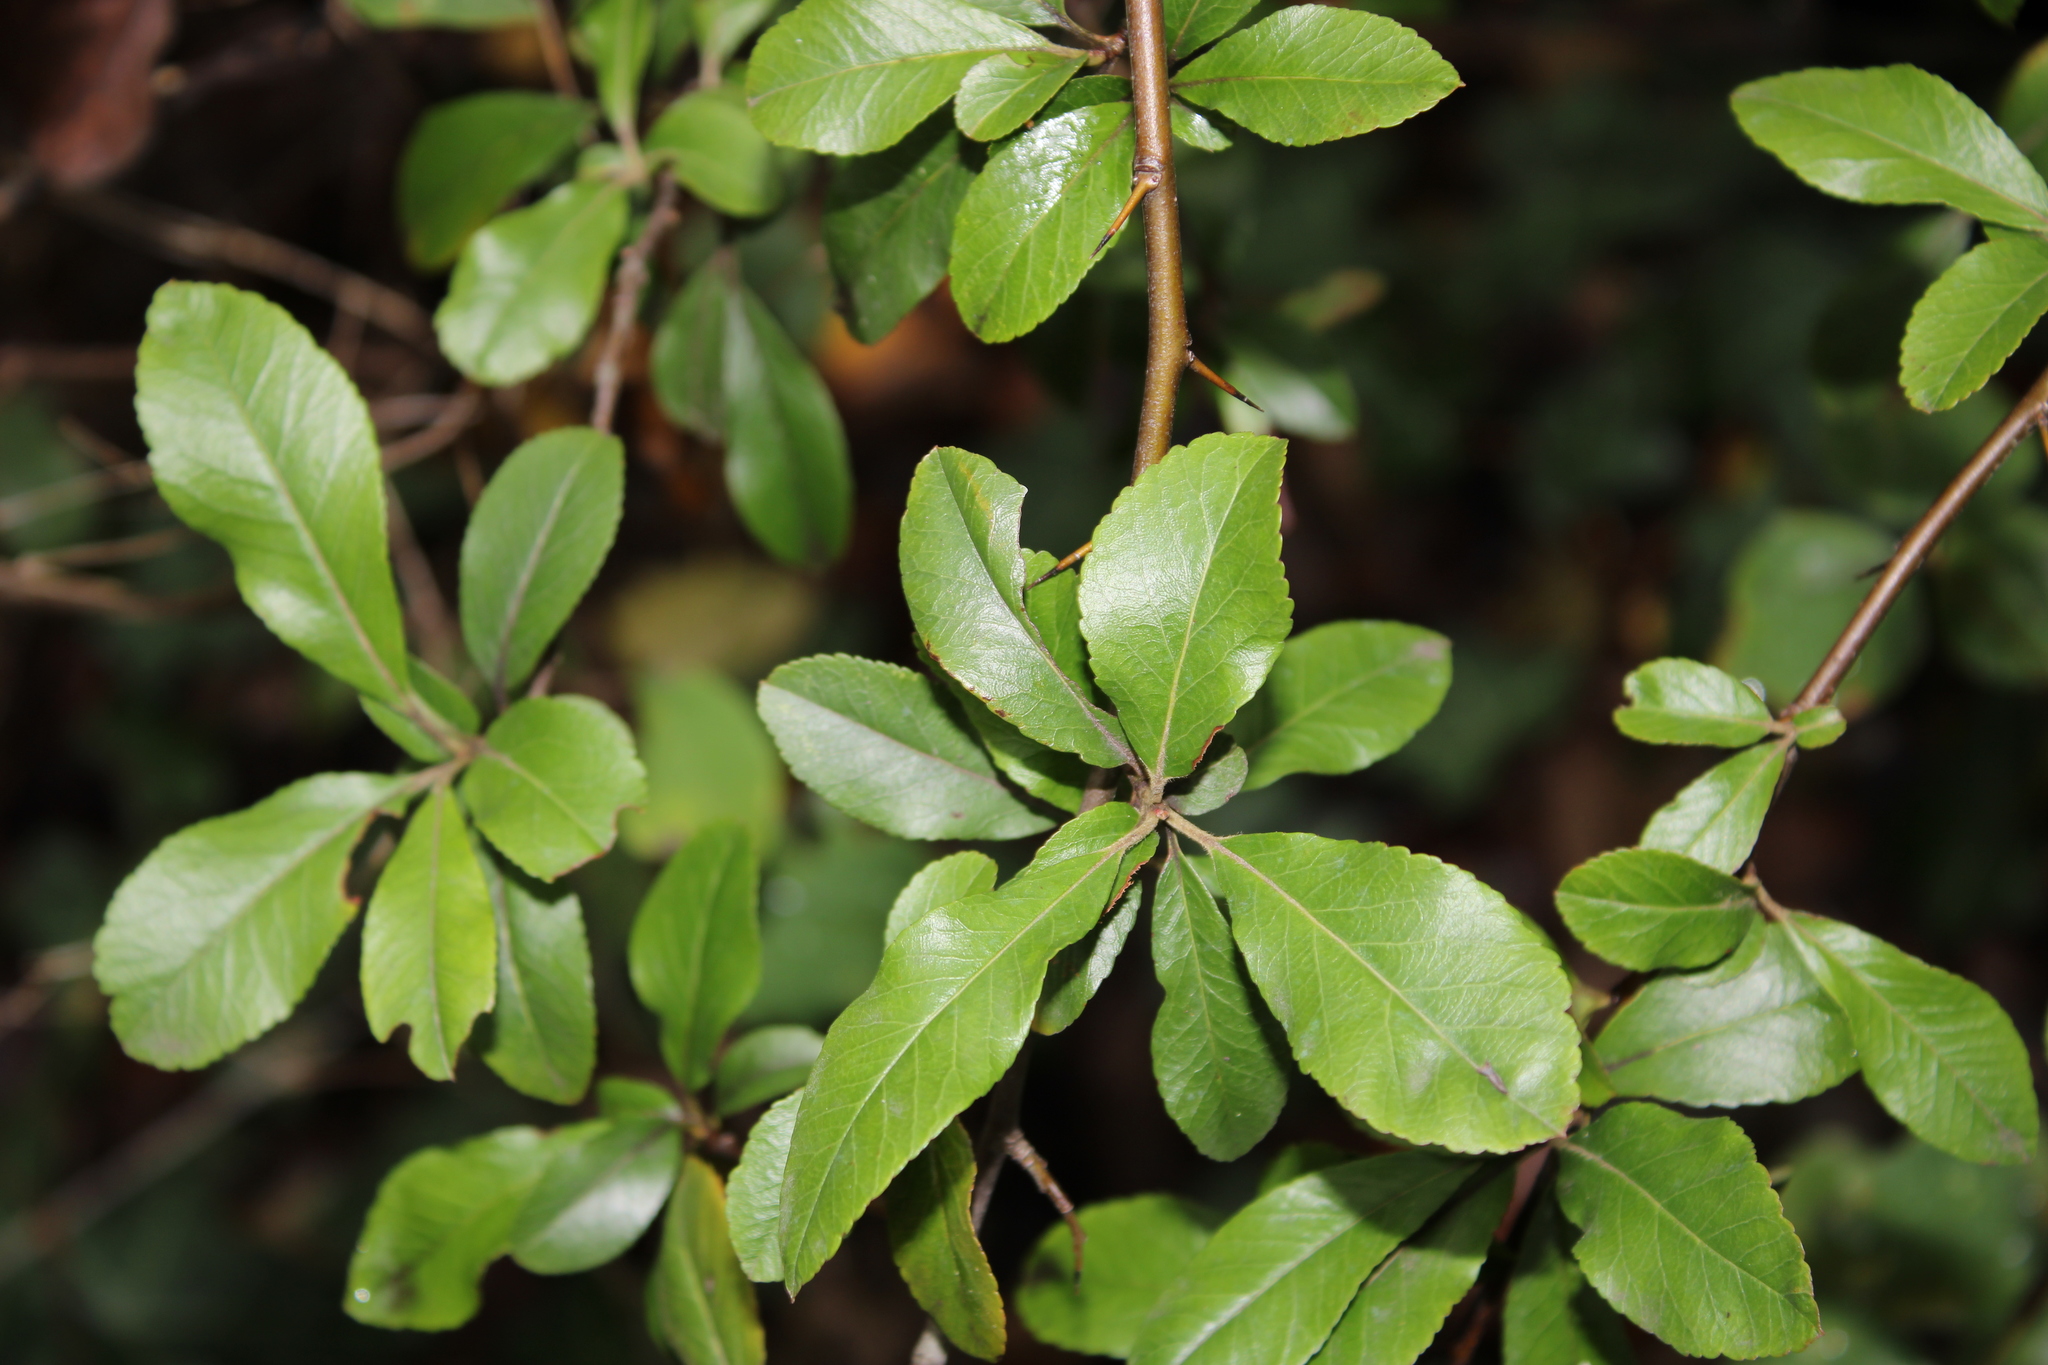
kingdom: Plantae
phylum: Tracheophyta
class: Magnoliopsida
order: Rosales
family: Rosaceae
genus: Pyracantha
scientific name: Pyracantha coccinea
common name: Firethorn
